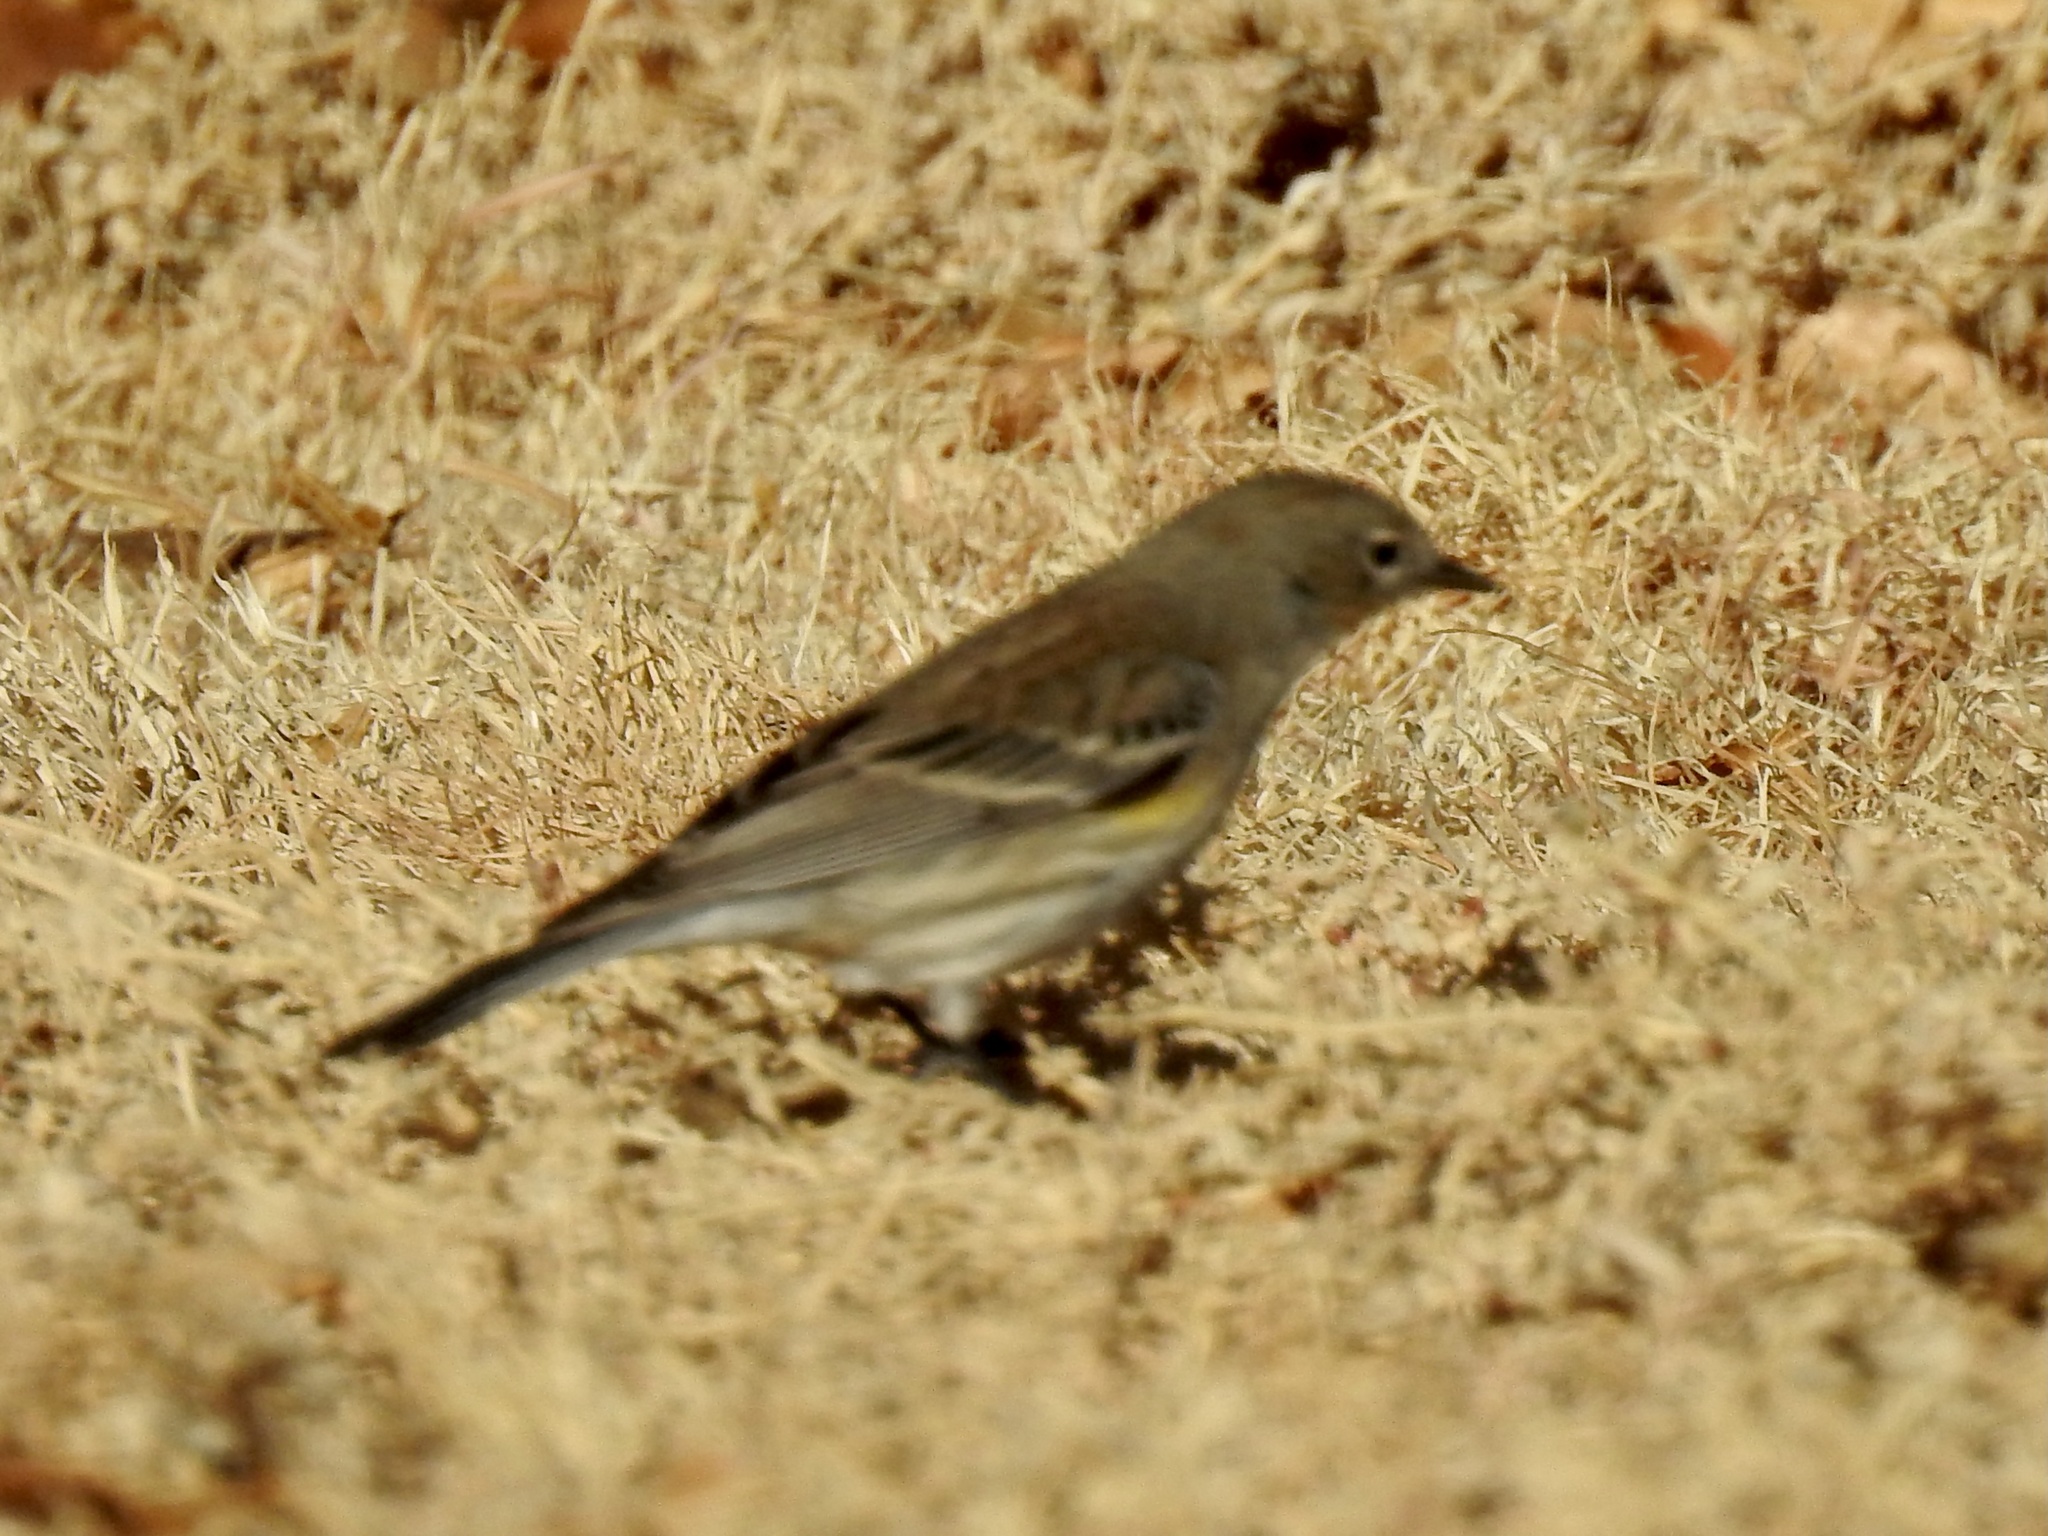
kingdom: Animalia
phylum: Chordata
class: Aves
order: Passeriformes
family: Parulidae
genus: Setophaga
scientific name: Setophaga coronata
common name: Myrtle warbler
